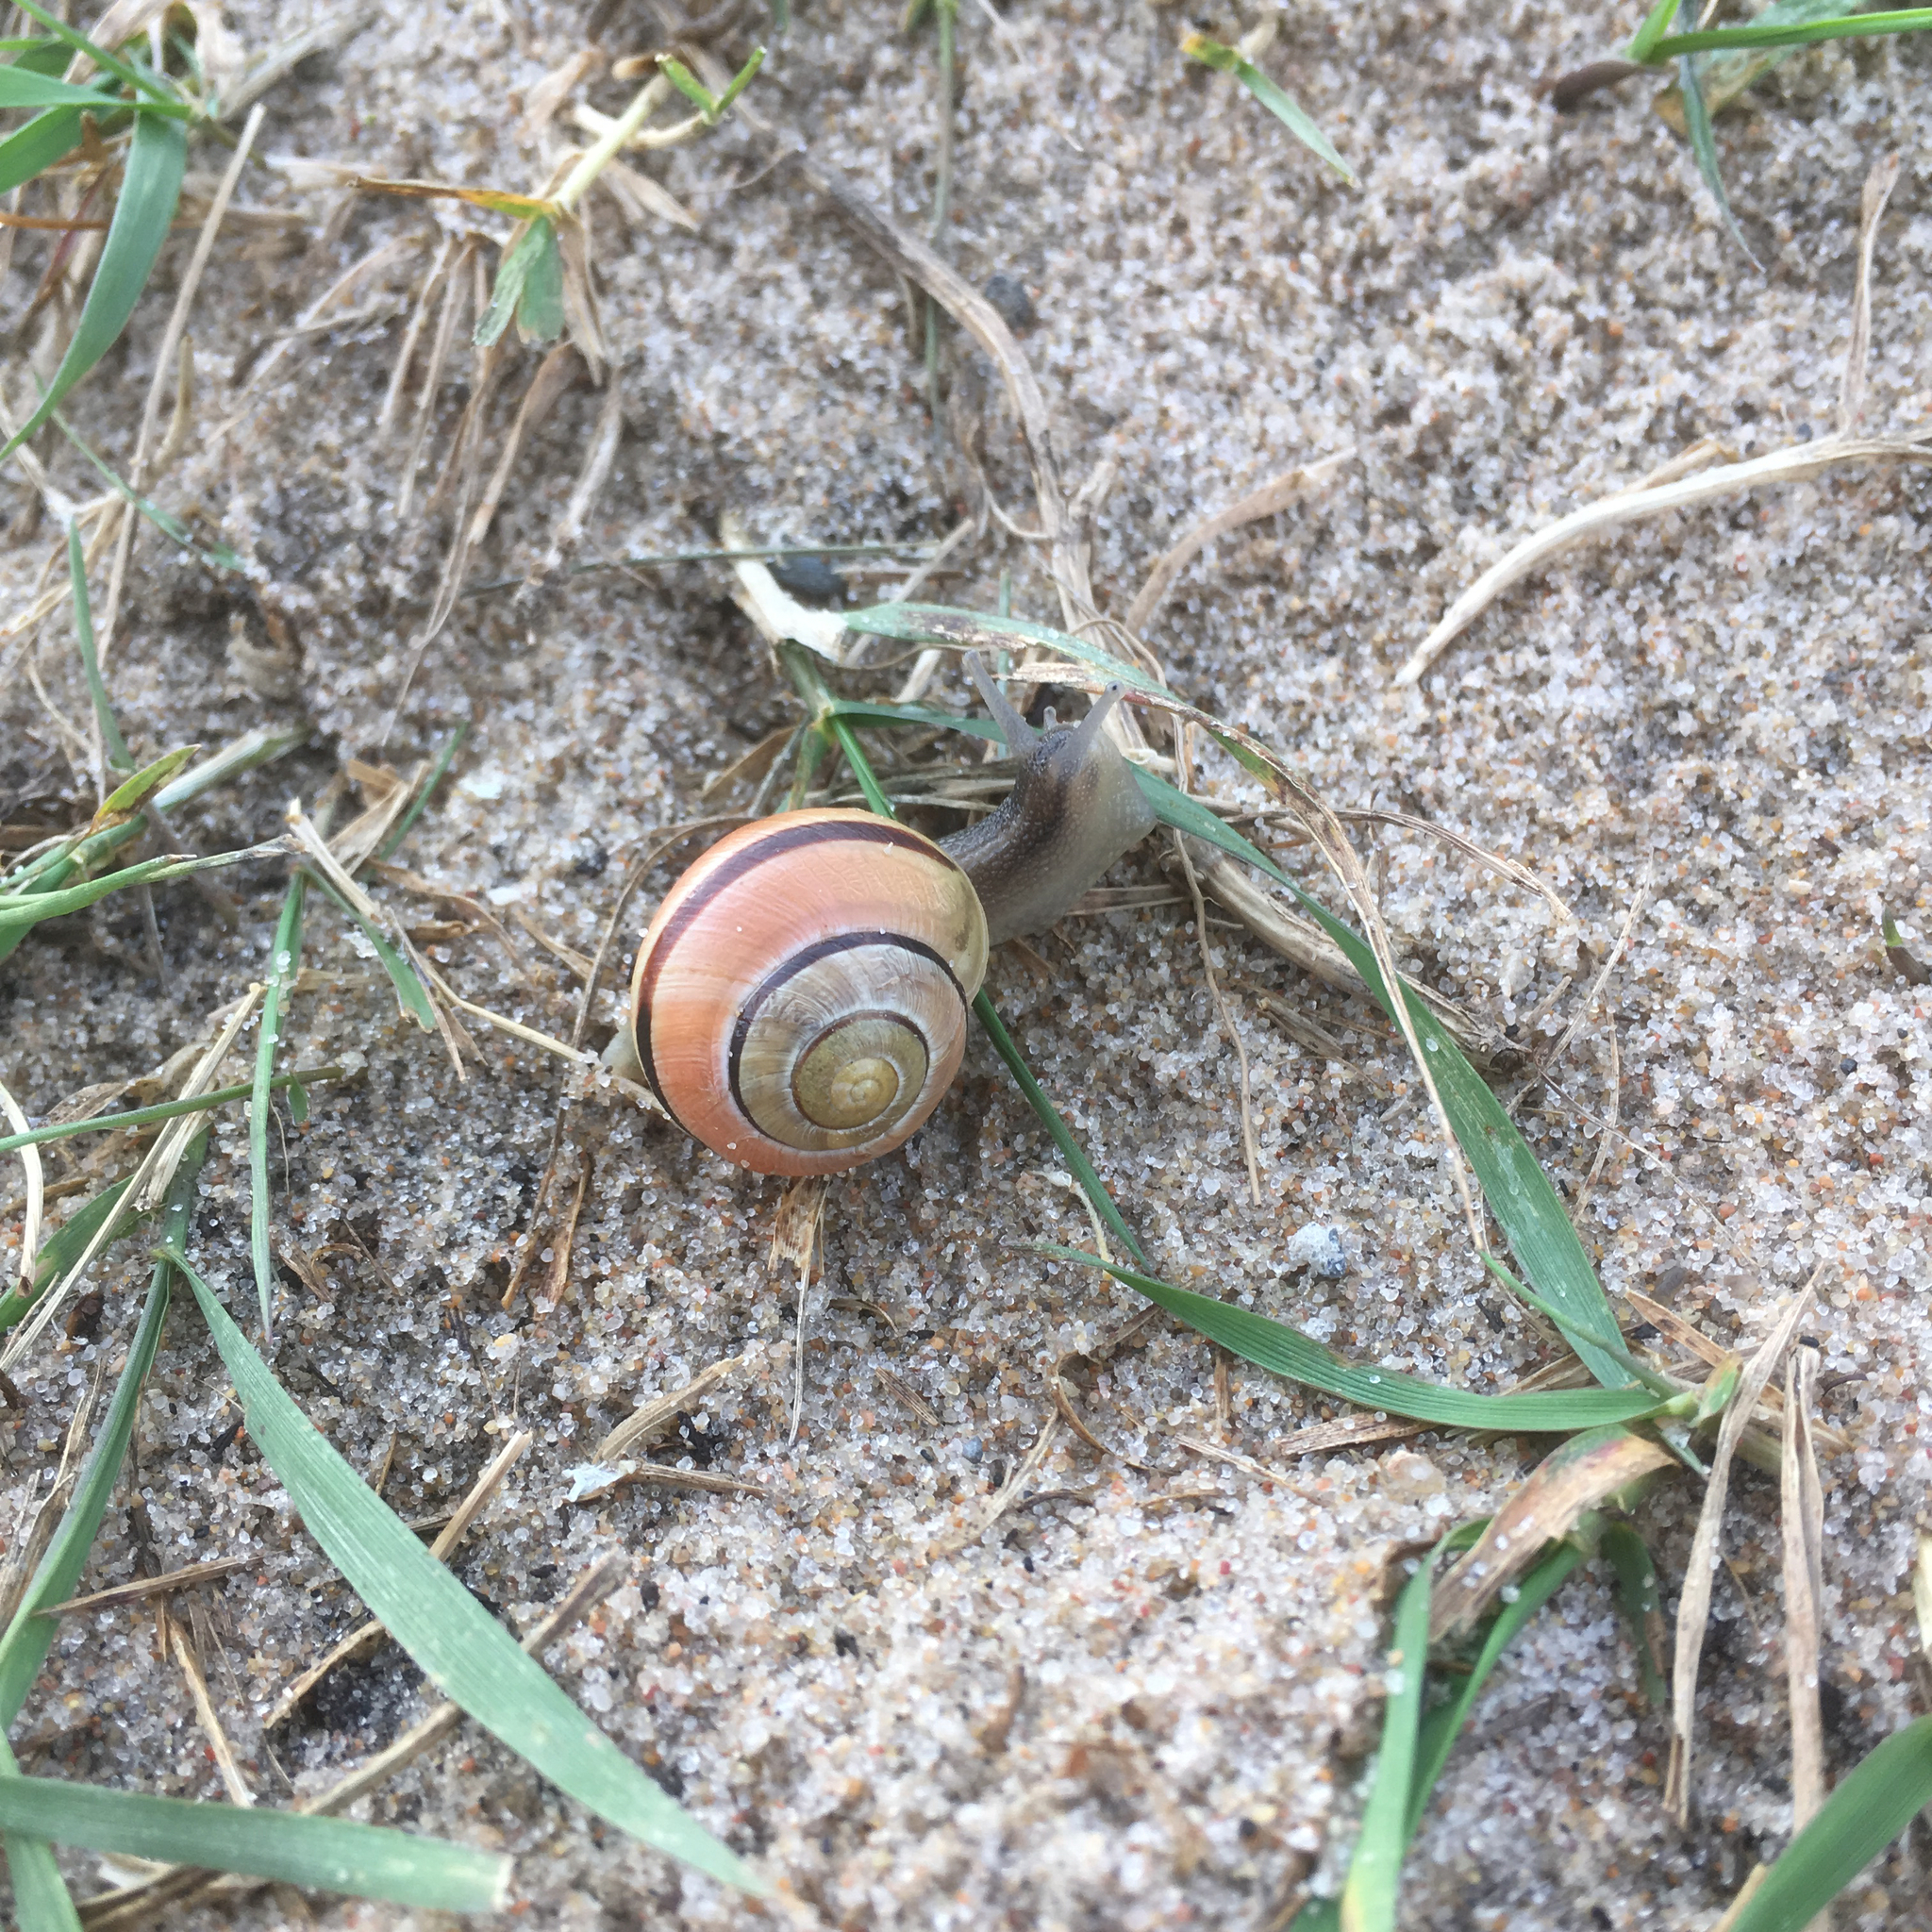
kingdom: Animalia
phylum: Mollusca
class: Gastropoda
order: Stylommatophora
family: Helicidae
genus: Cepaea
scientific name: Cepaea nemoralis
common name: Grovesnail
